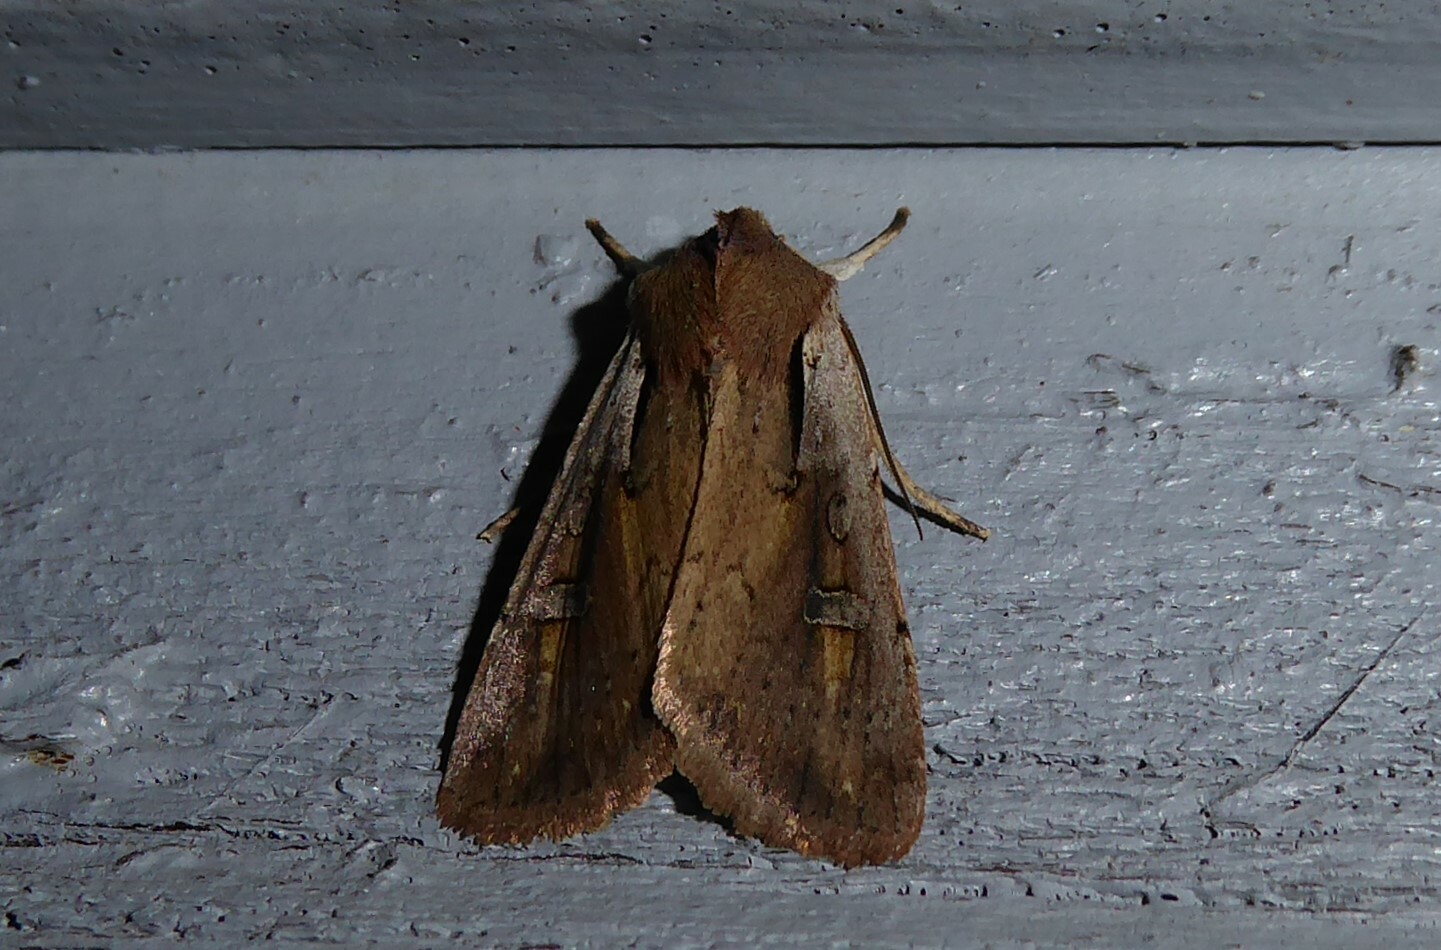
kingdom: Animalia
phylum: Arthropoda
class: Insecta
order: Lepidoptera
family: Noctuidae
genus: Ichneutica
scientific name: Ichneutica atristriga
